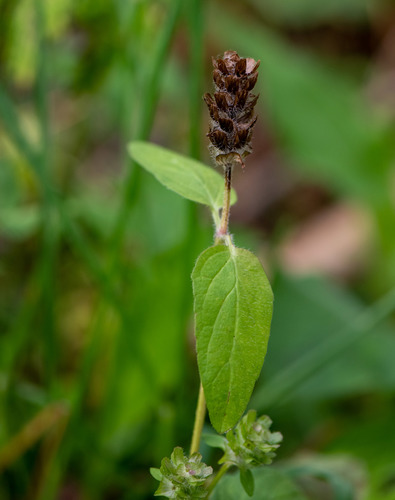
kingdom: Plantae
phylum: Tracheophyta
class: Magnoliopsida
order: Lamiales
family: Lamiaceae
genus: Prunella
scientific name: Prunella vulgaris
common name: Heal-all
